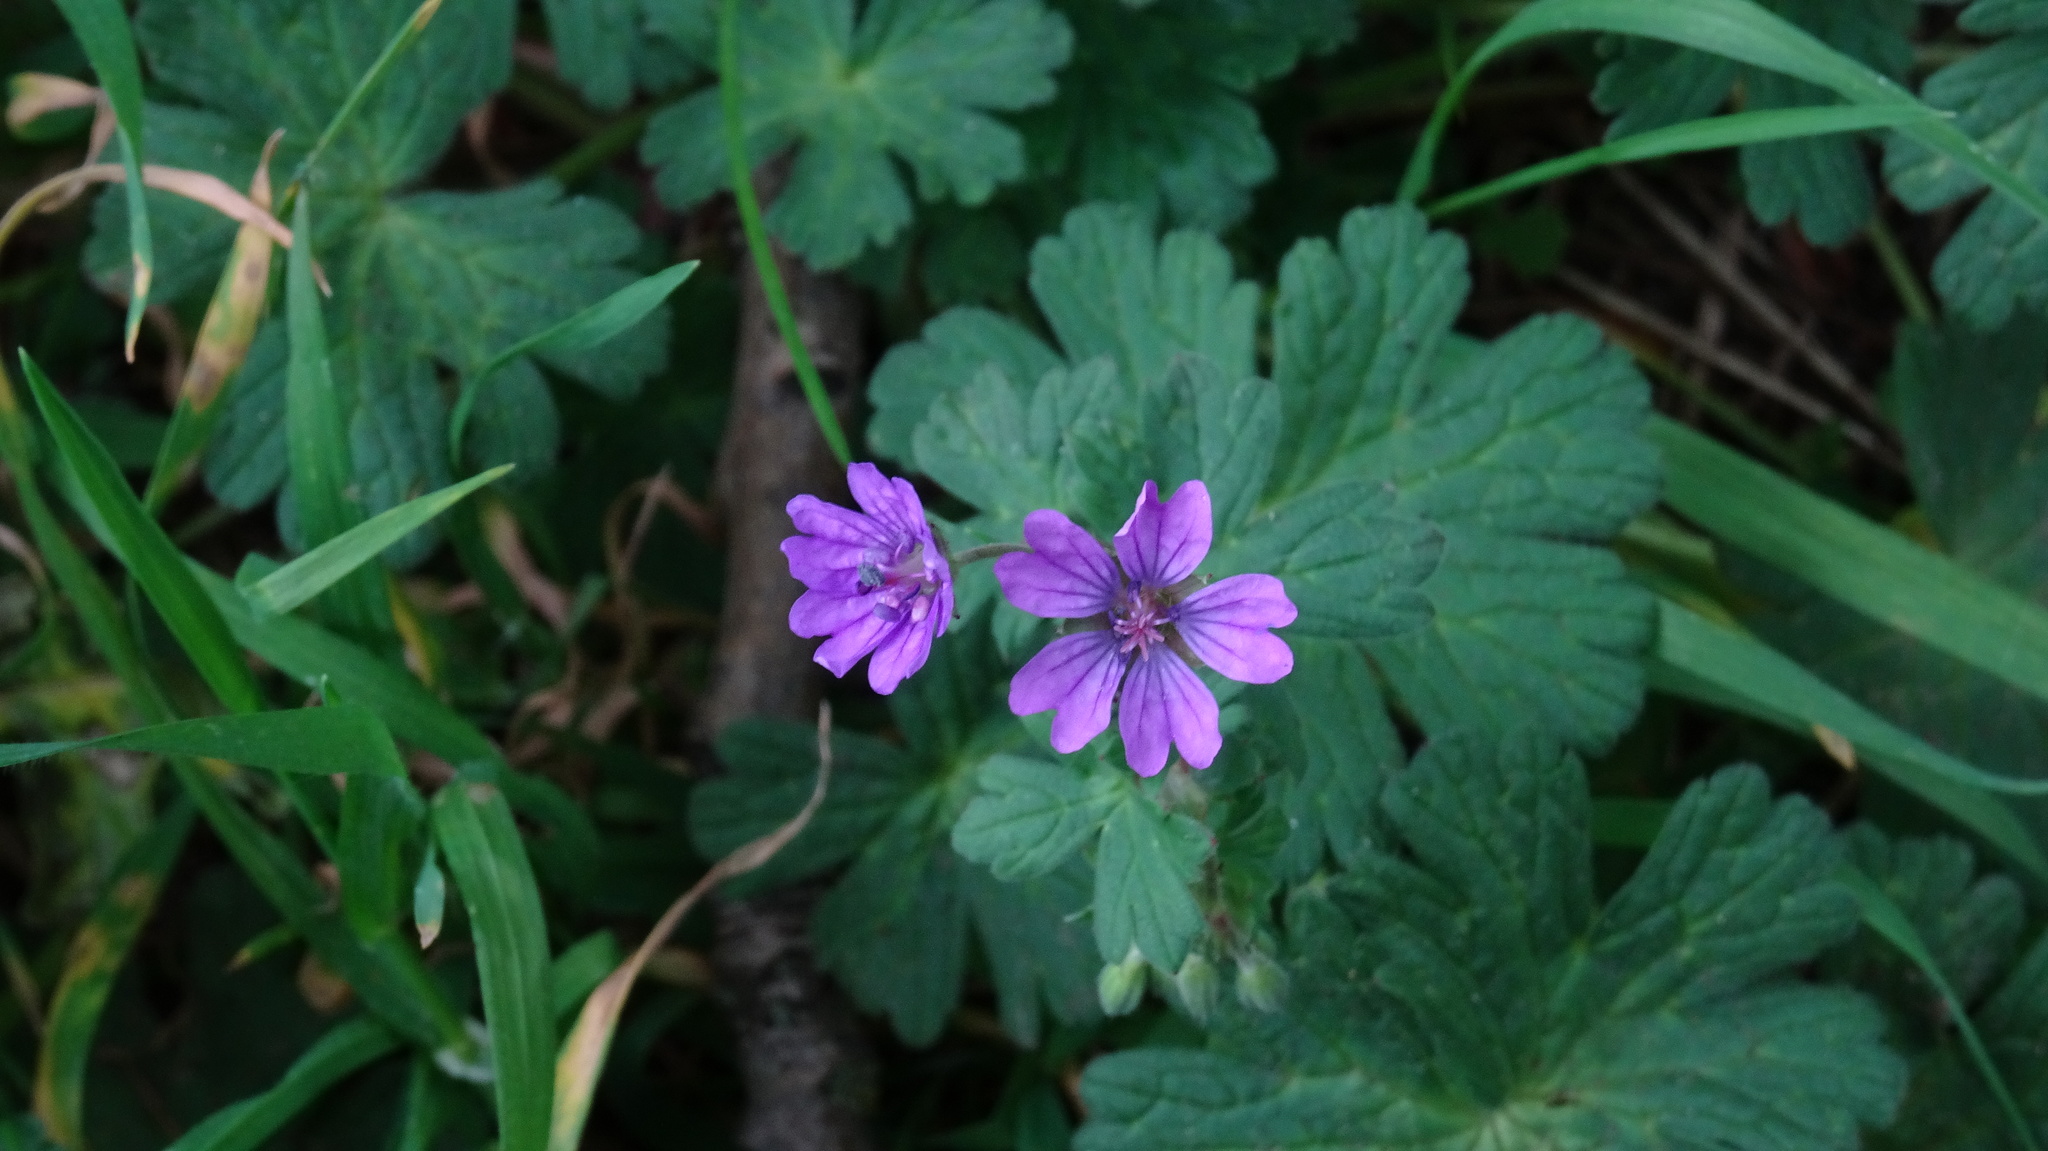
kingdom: Plantae
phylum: Tracheophyta
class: Magnoliopsida
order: Geraniales
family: Geraniaceae
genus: Geranium
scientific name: Geranium pyrenaicum
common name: Hedgerow crane's-bill
